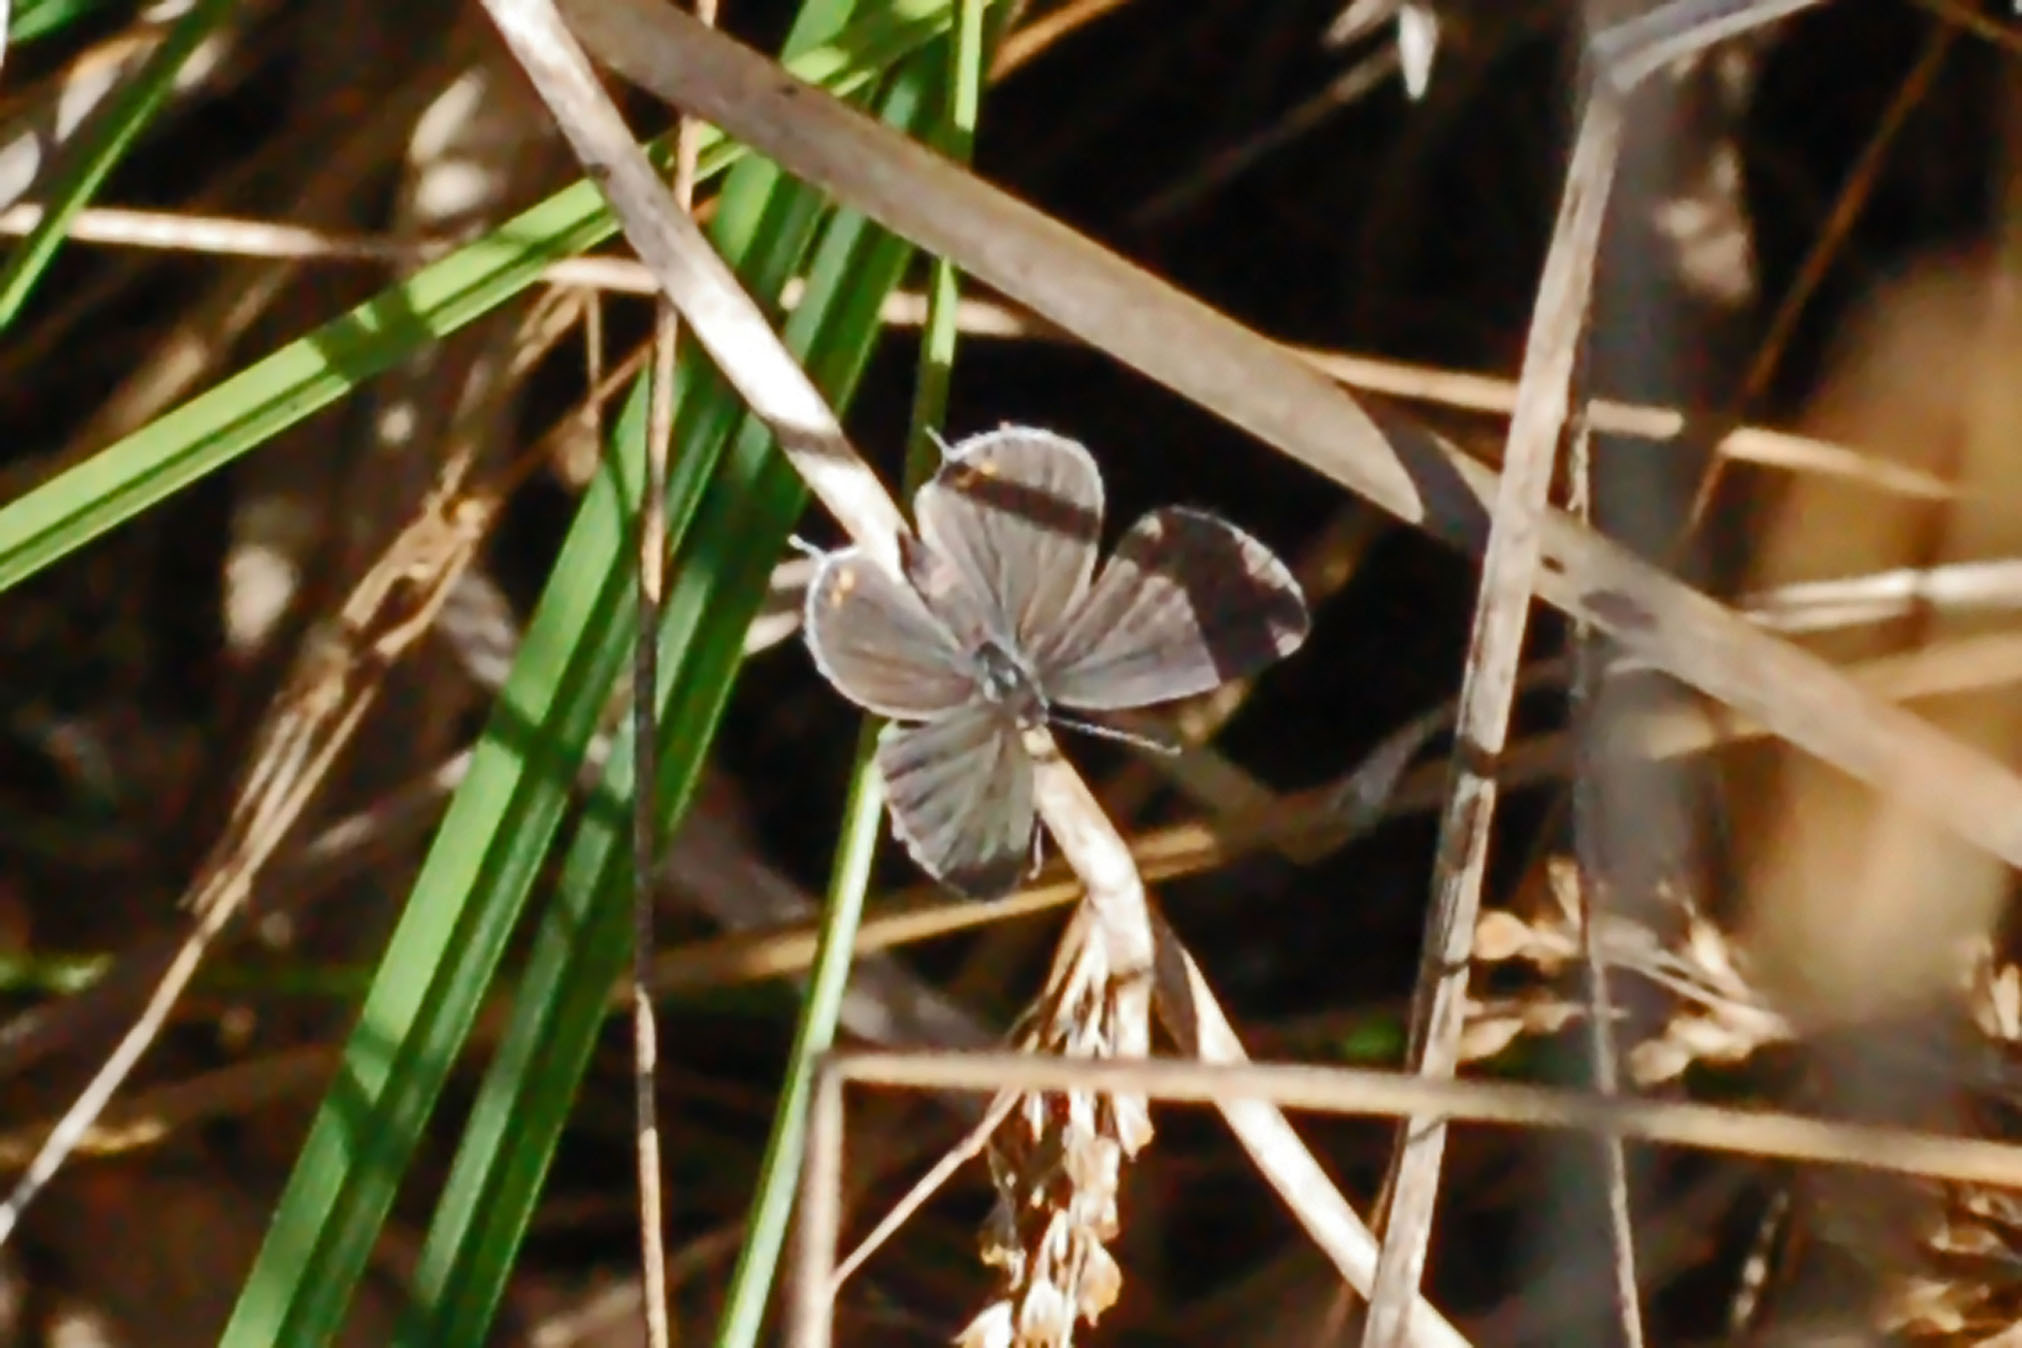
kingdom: Animalia
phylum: Arthropoda
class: Insecta
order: Lepidoptera
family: Lycaenidae
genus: Elkalyce
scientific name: Elkalyce comyntas
